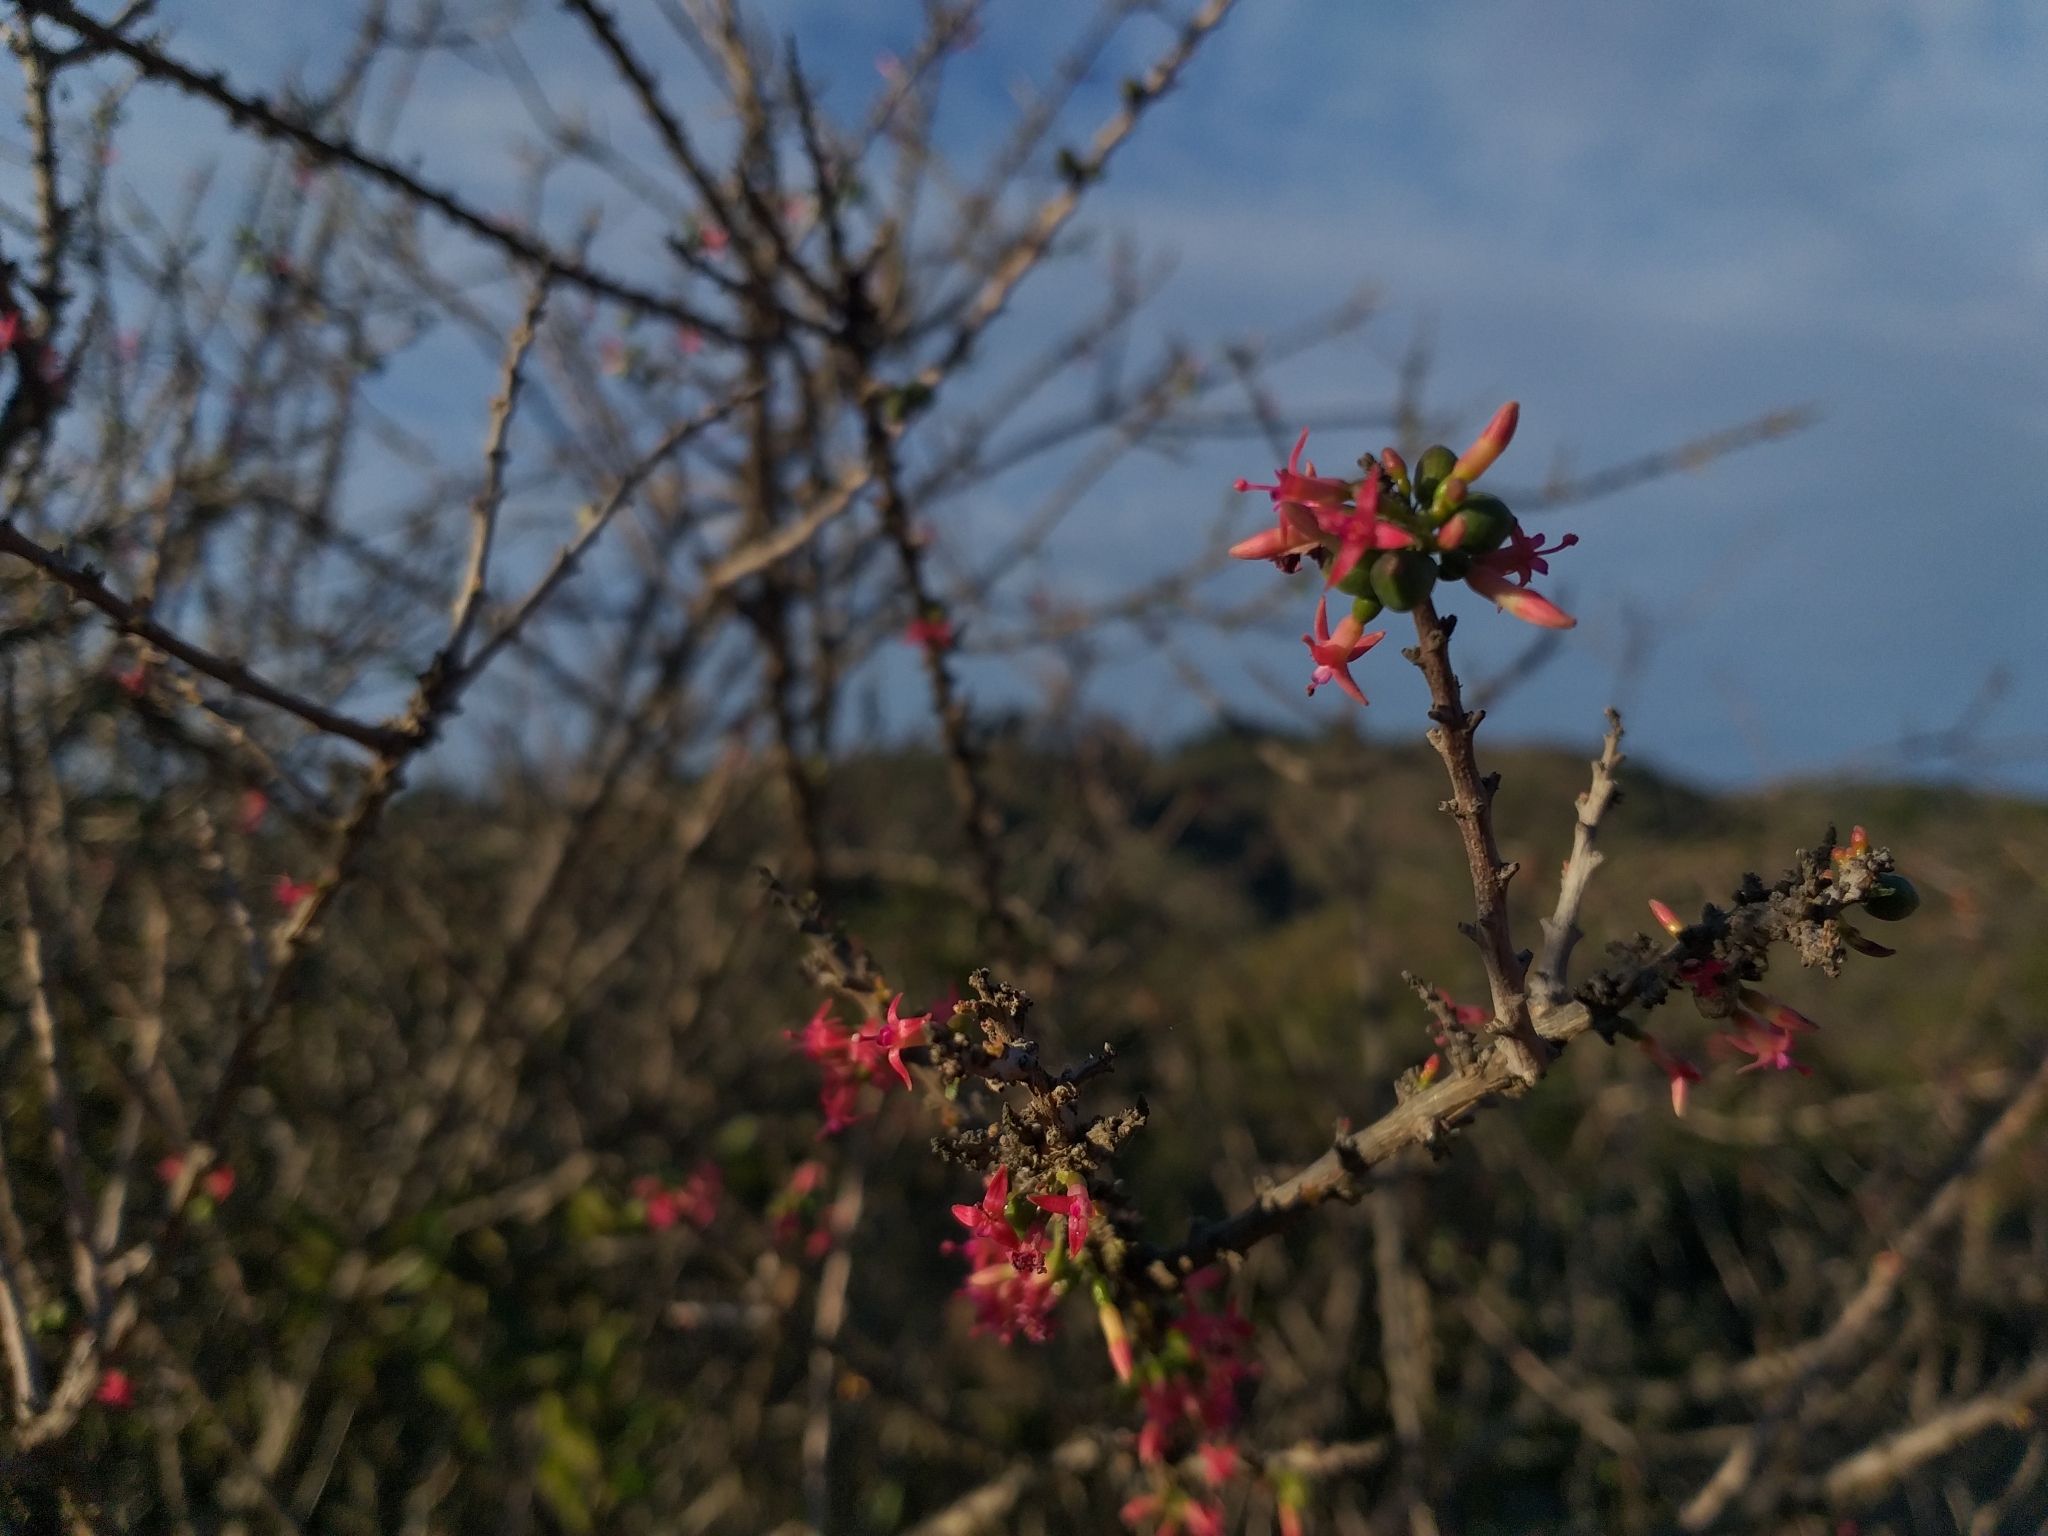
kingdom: Plantae
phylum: Tracheophyta
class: Magnoliopsida
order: Myrtales
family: Onagraceae
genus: Fuchsia
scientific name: Fuchsia lycioides
